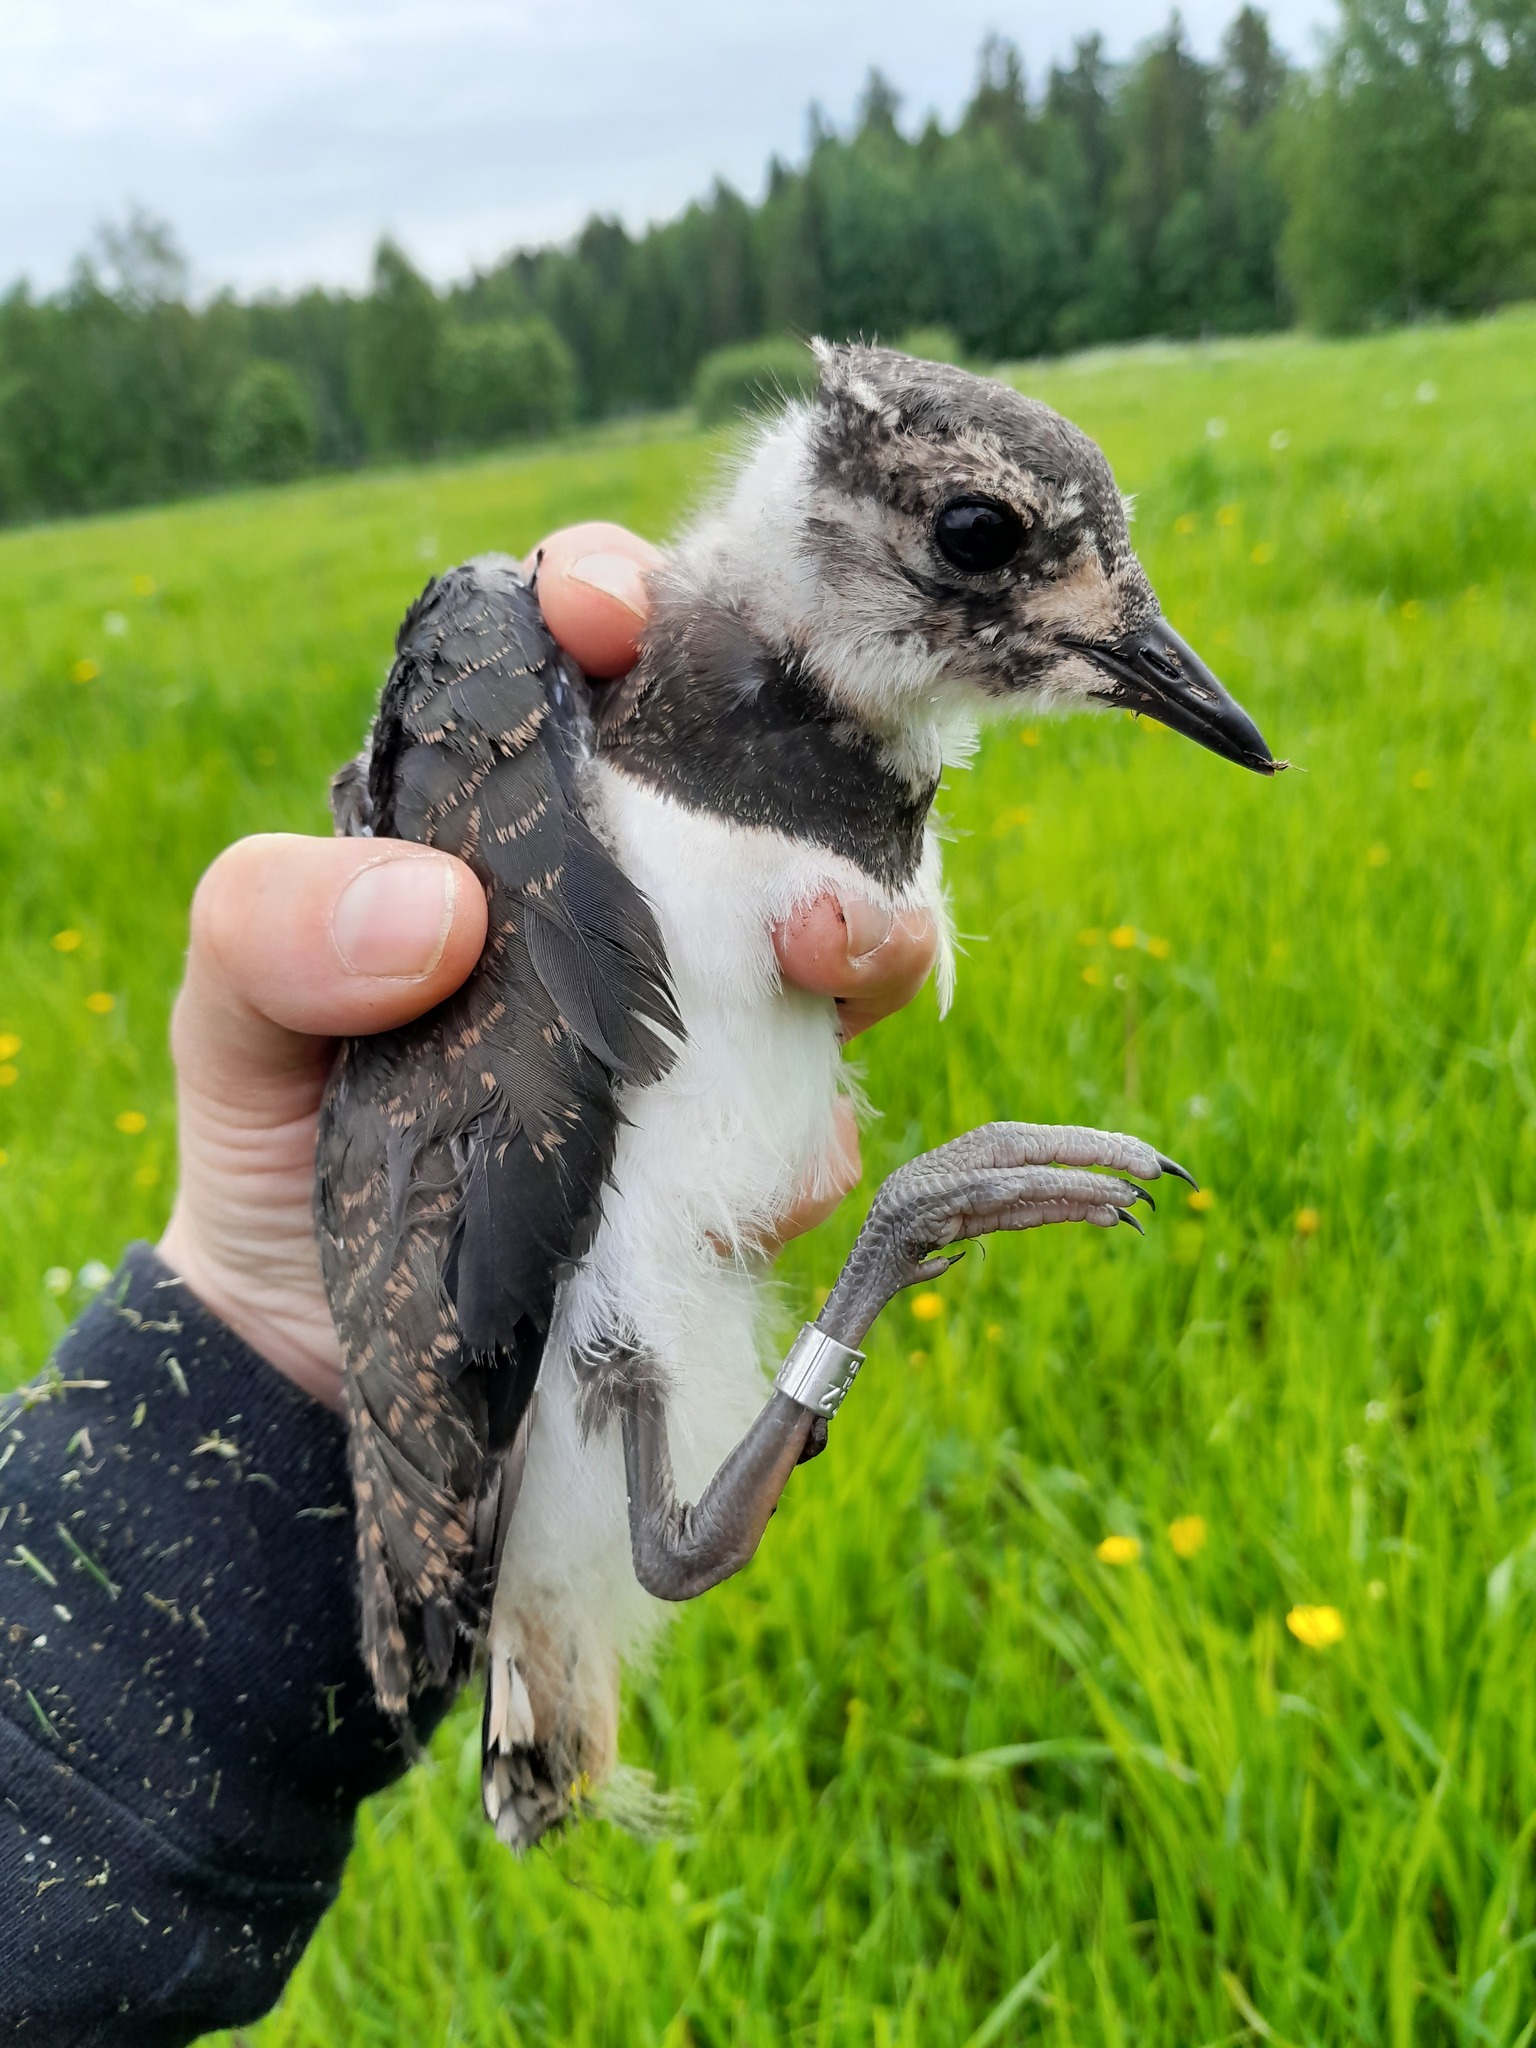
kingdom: Animalia
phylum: Chordata
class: Aves
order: Charadriiformes
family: Charadriidae
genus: Vanellus
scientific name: Vanellus vanellus
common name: Northern lapwing
